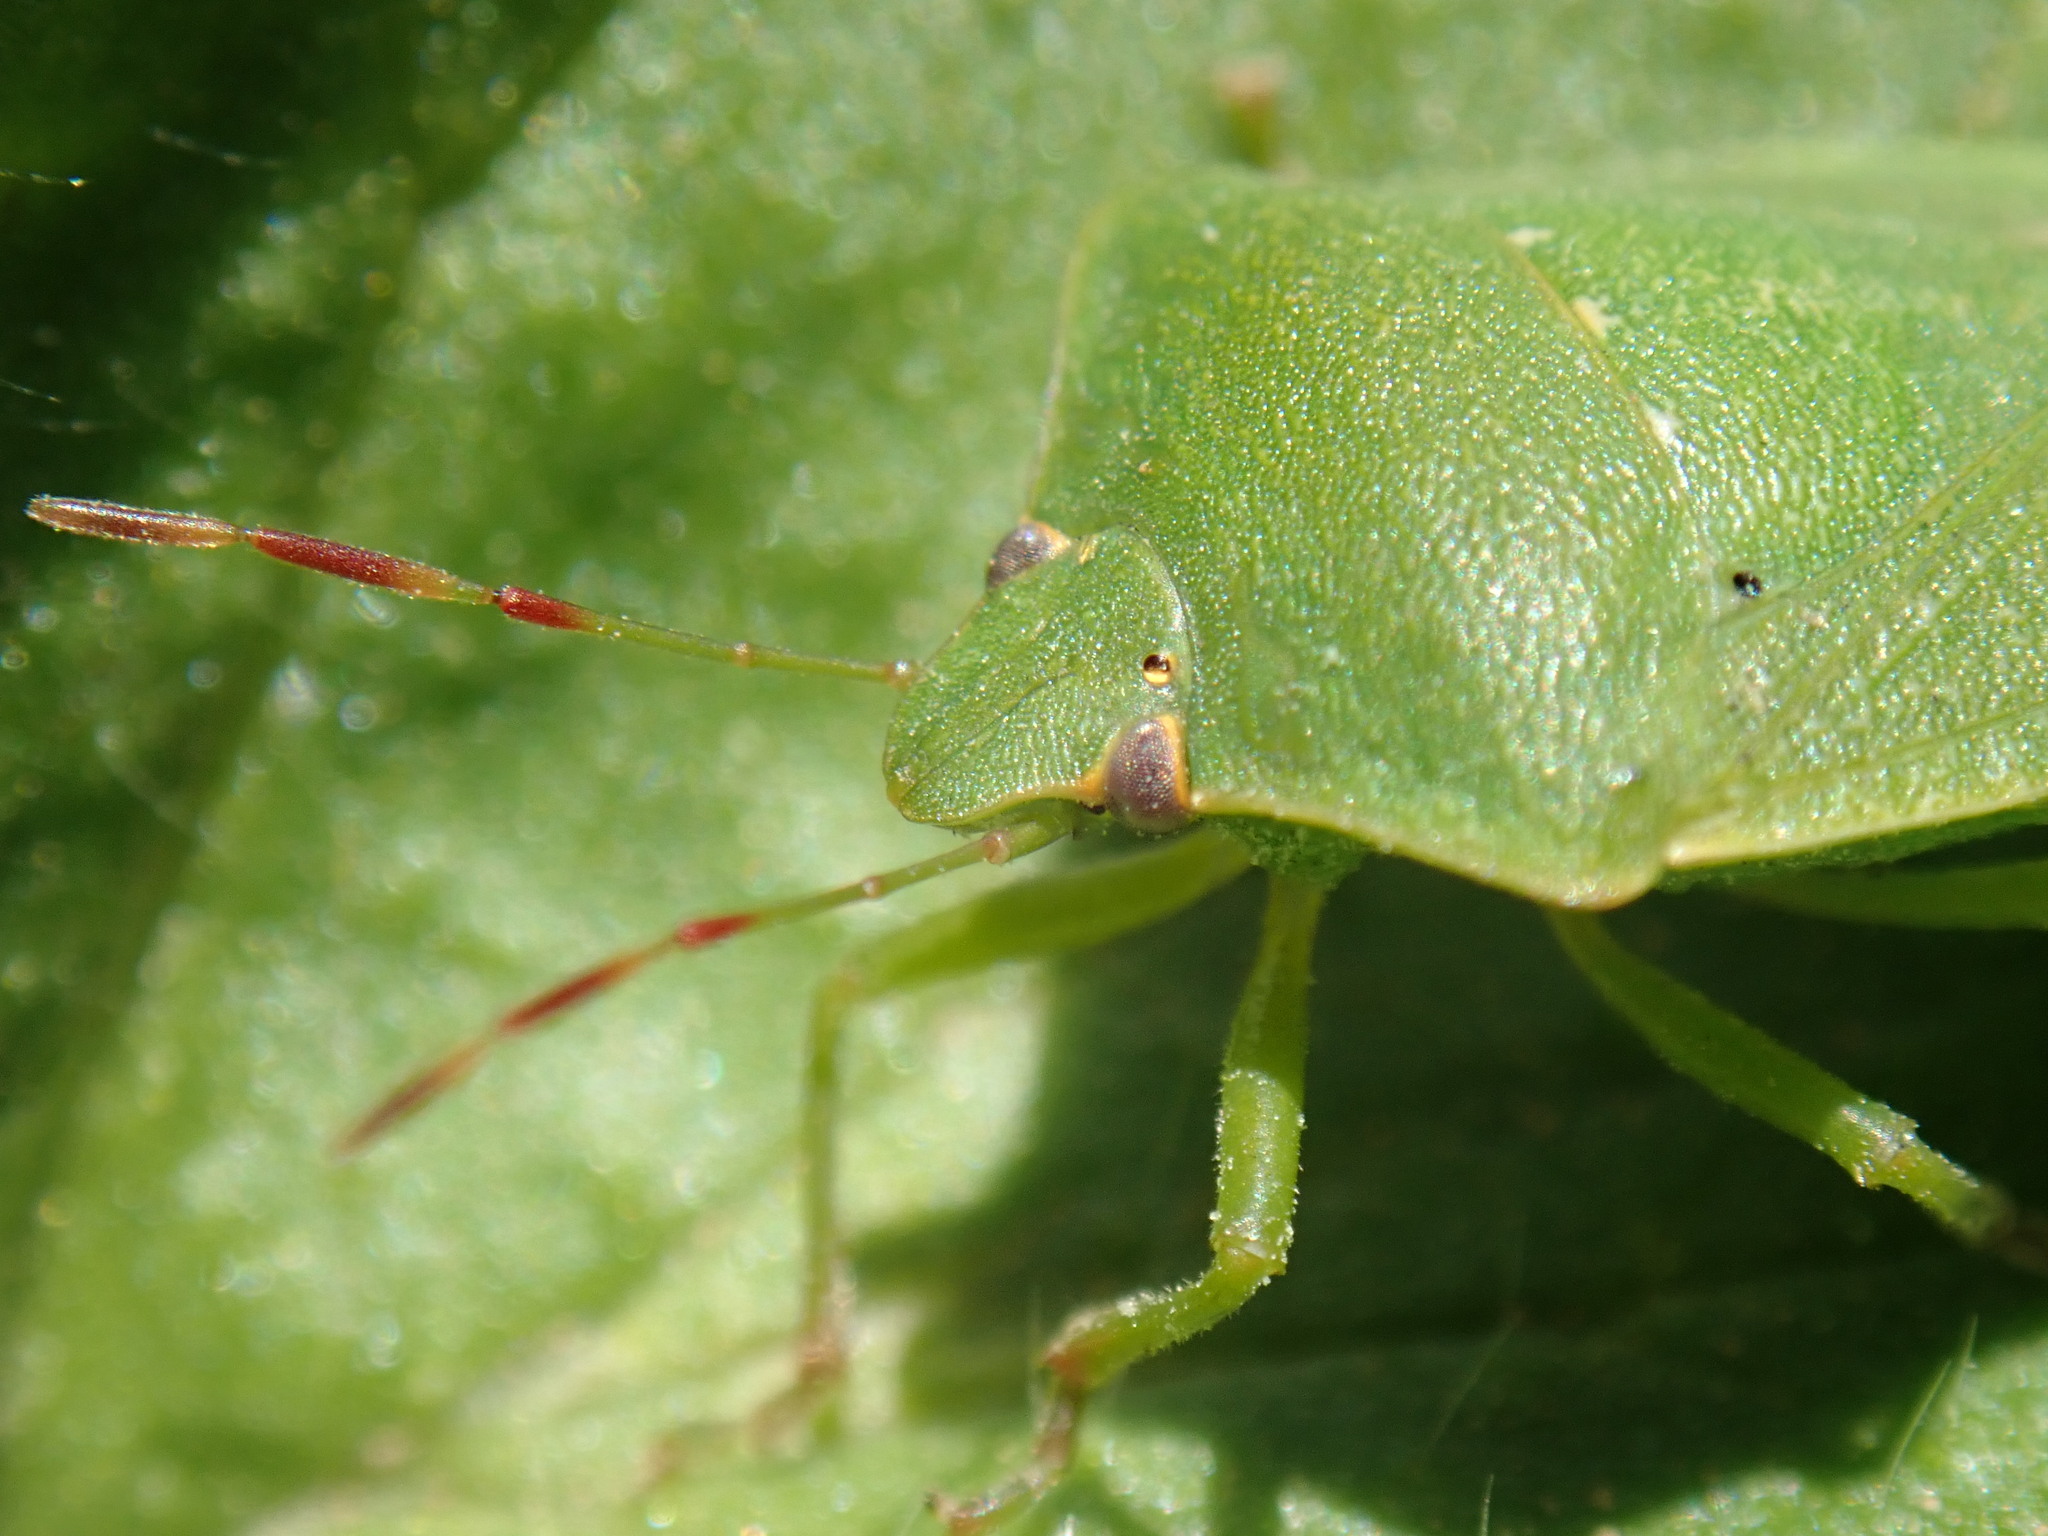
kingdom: Animalia
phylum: Arthropoda
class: Insecta
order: Hemiptera
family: Pentatomidae
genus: Nezara
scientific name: Nezara viridula
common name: Southern green stink bug
